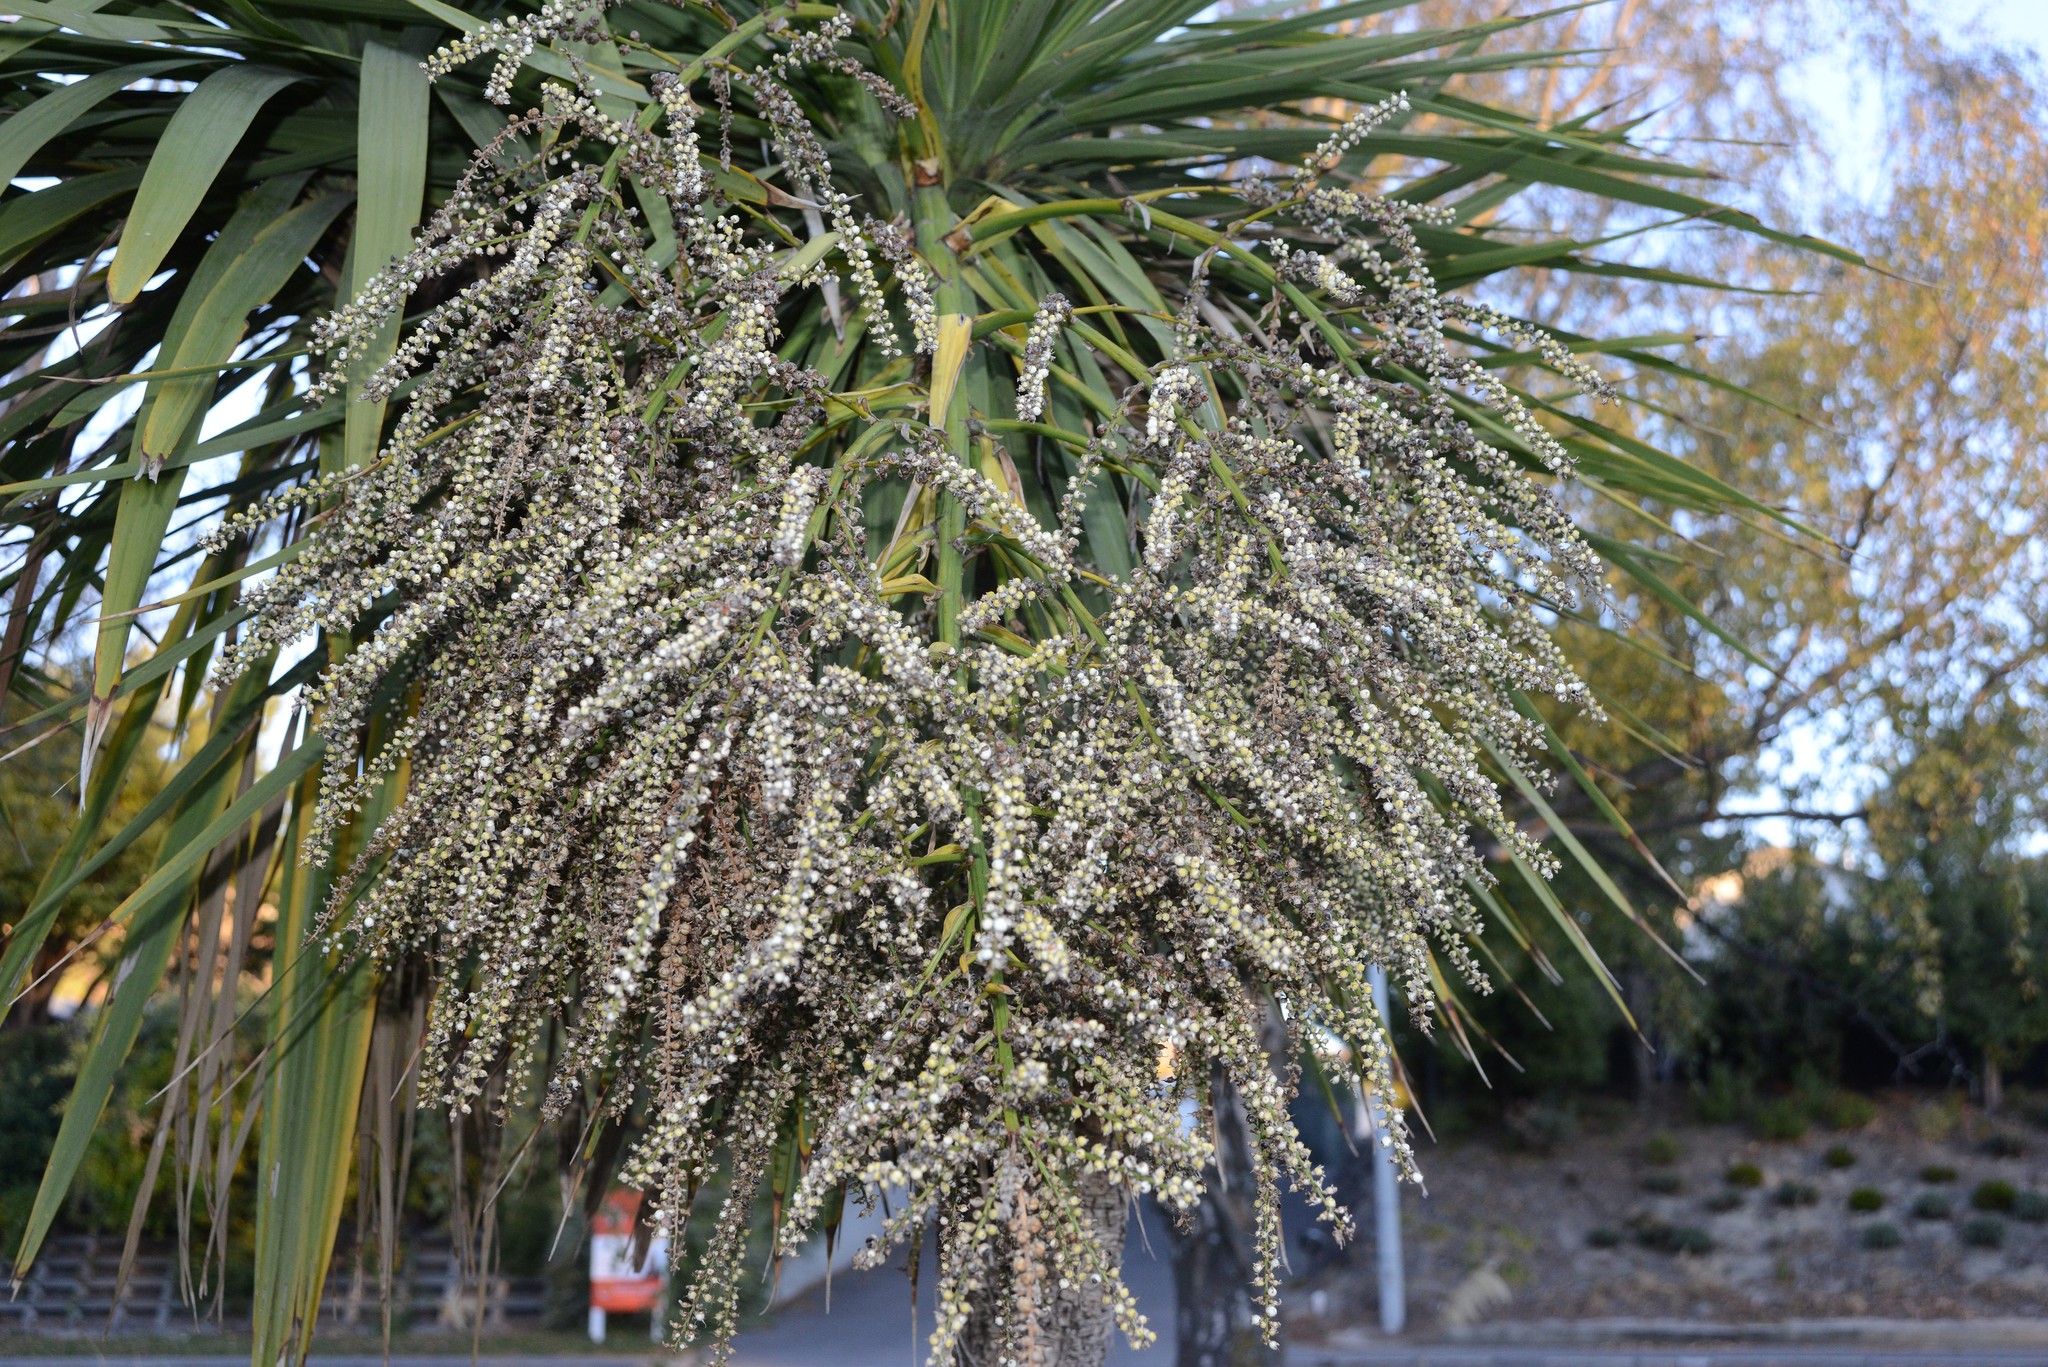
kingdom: Plantae
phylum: Tracheophyta
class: Liliopsida
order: Asparagales
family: Asparagaceae
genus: Cordyline
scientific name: Cordyline australis
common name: Cabbage-palm
